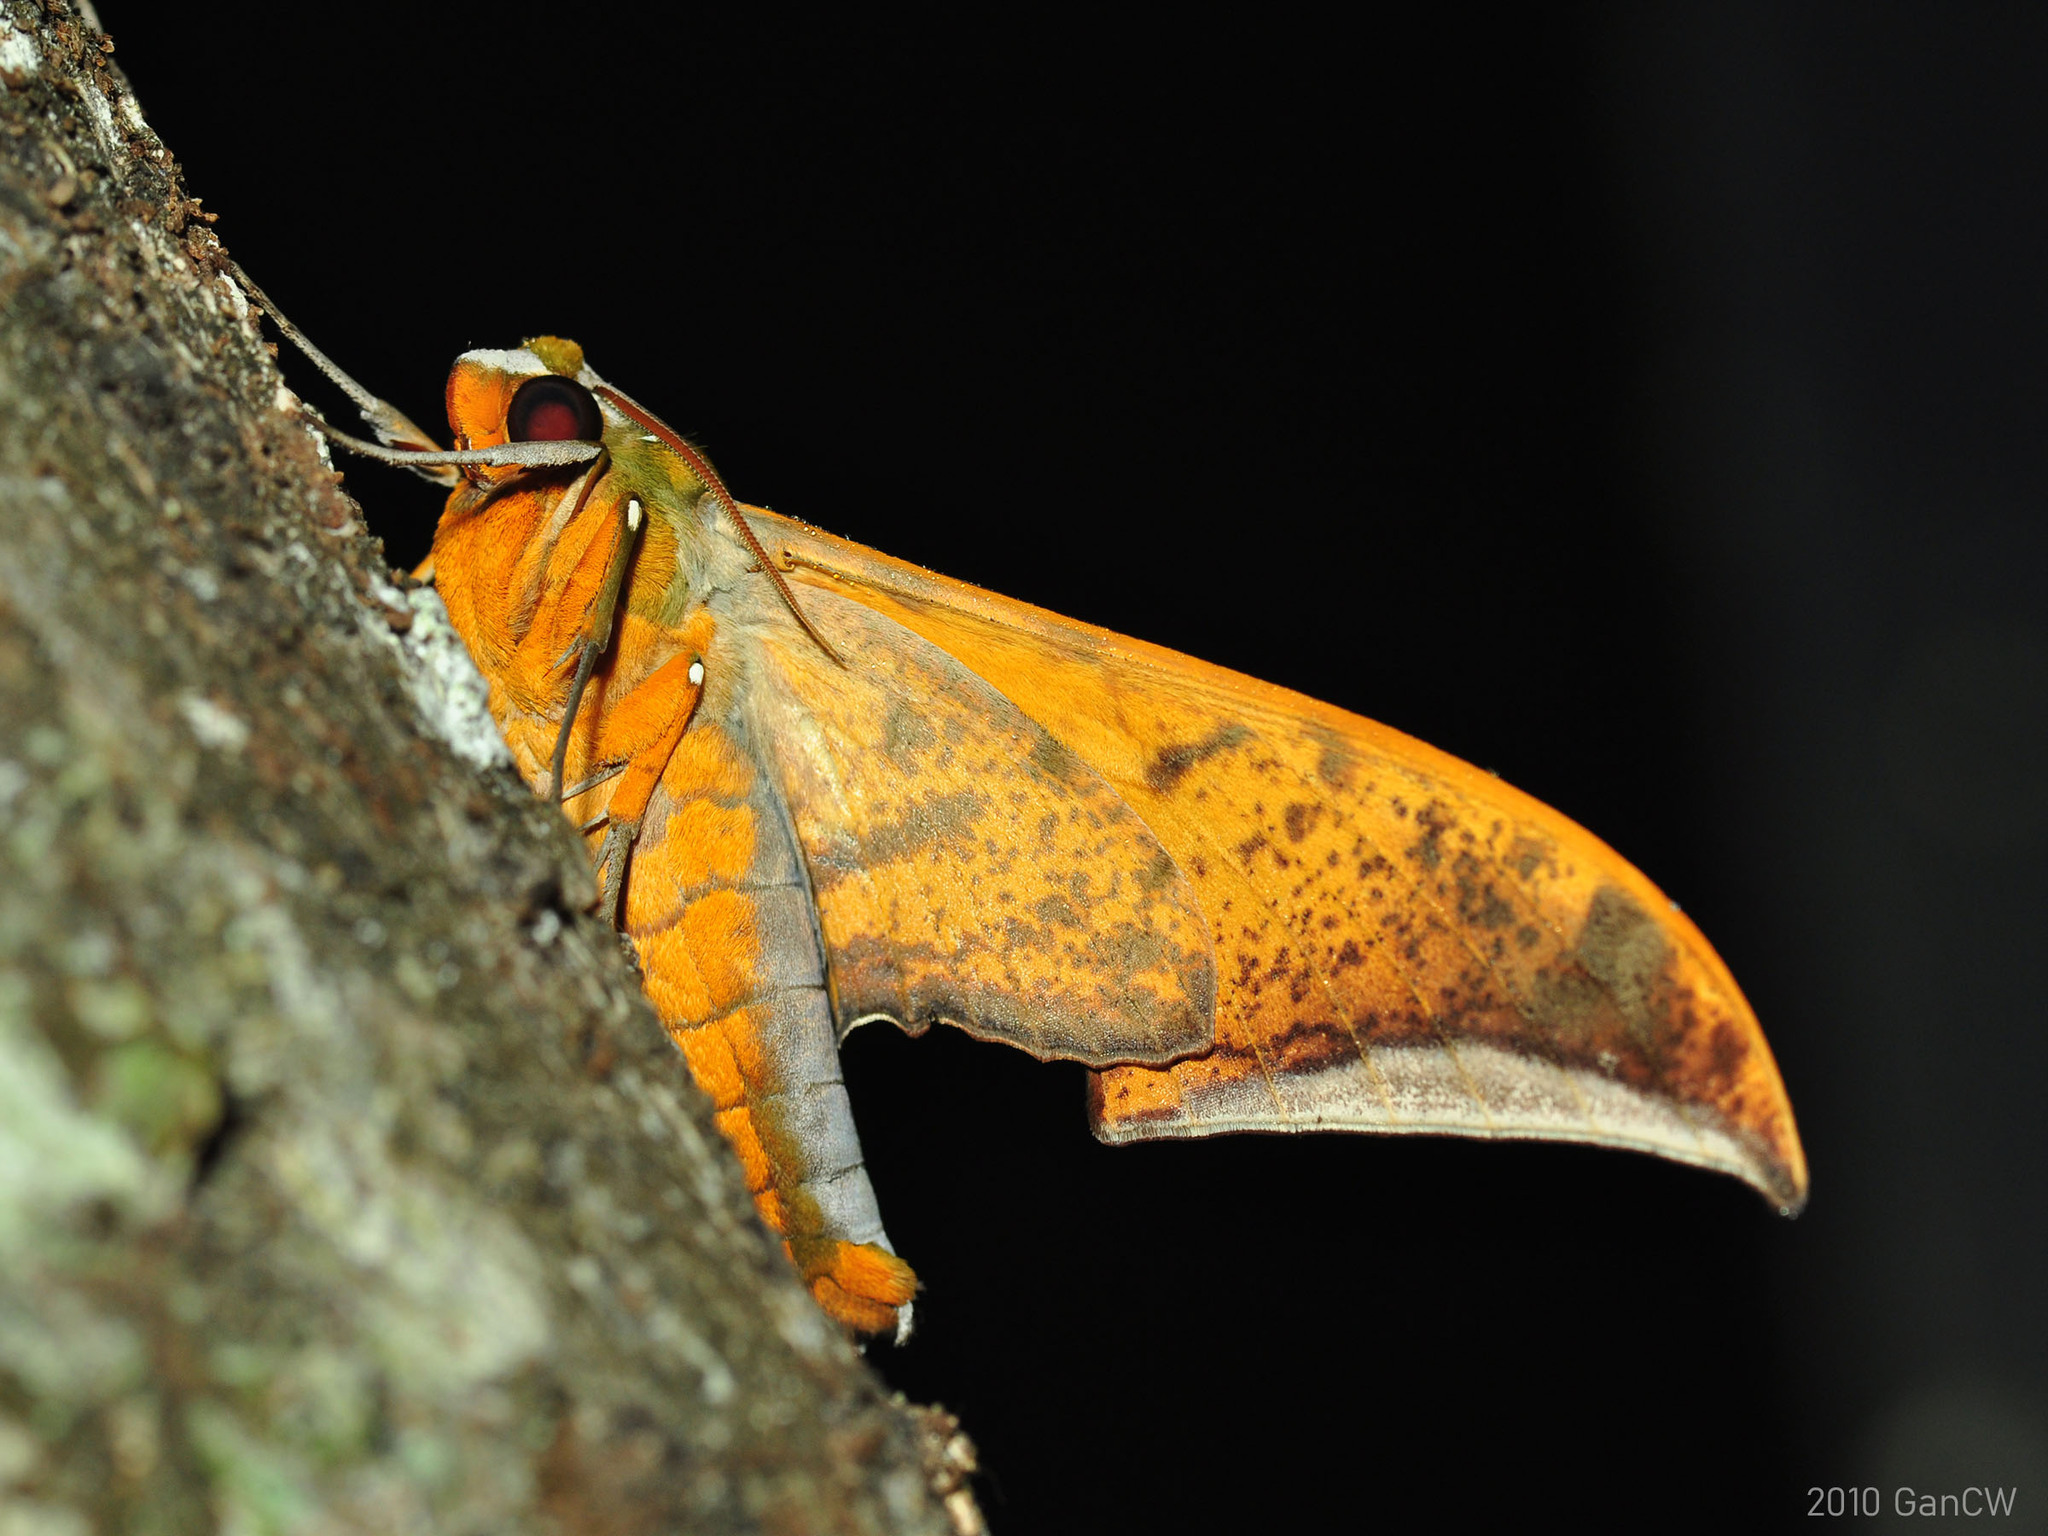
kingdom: Animalia
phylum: Arthropoda
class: Insecta
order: Lepidoptera
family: Sphingidae
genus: Ambulyx
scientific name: Ambulyx sericeipennis
